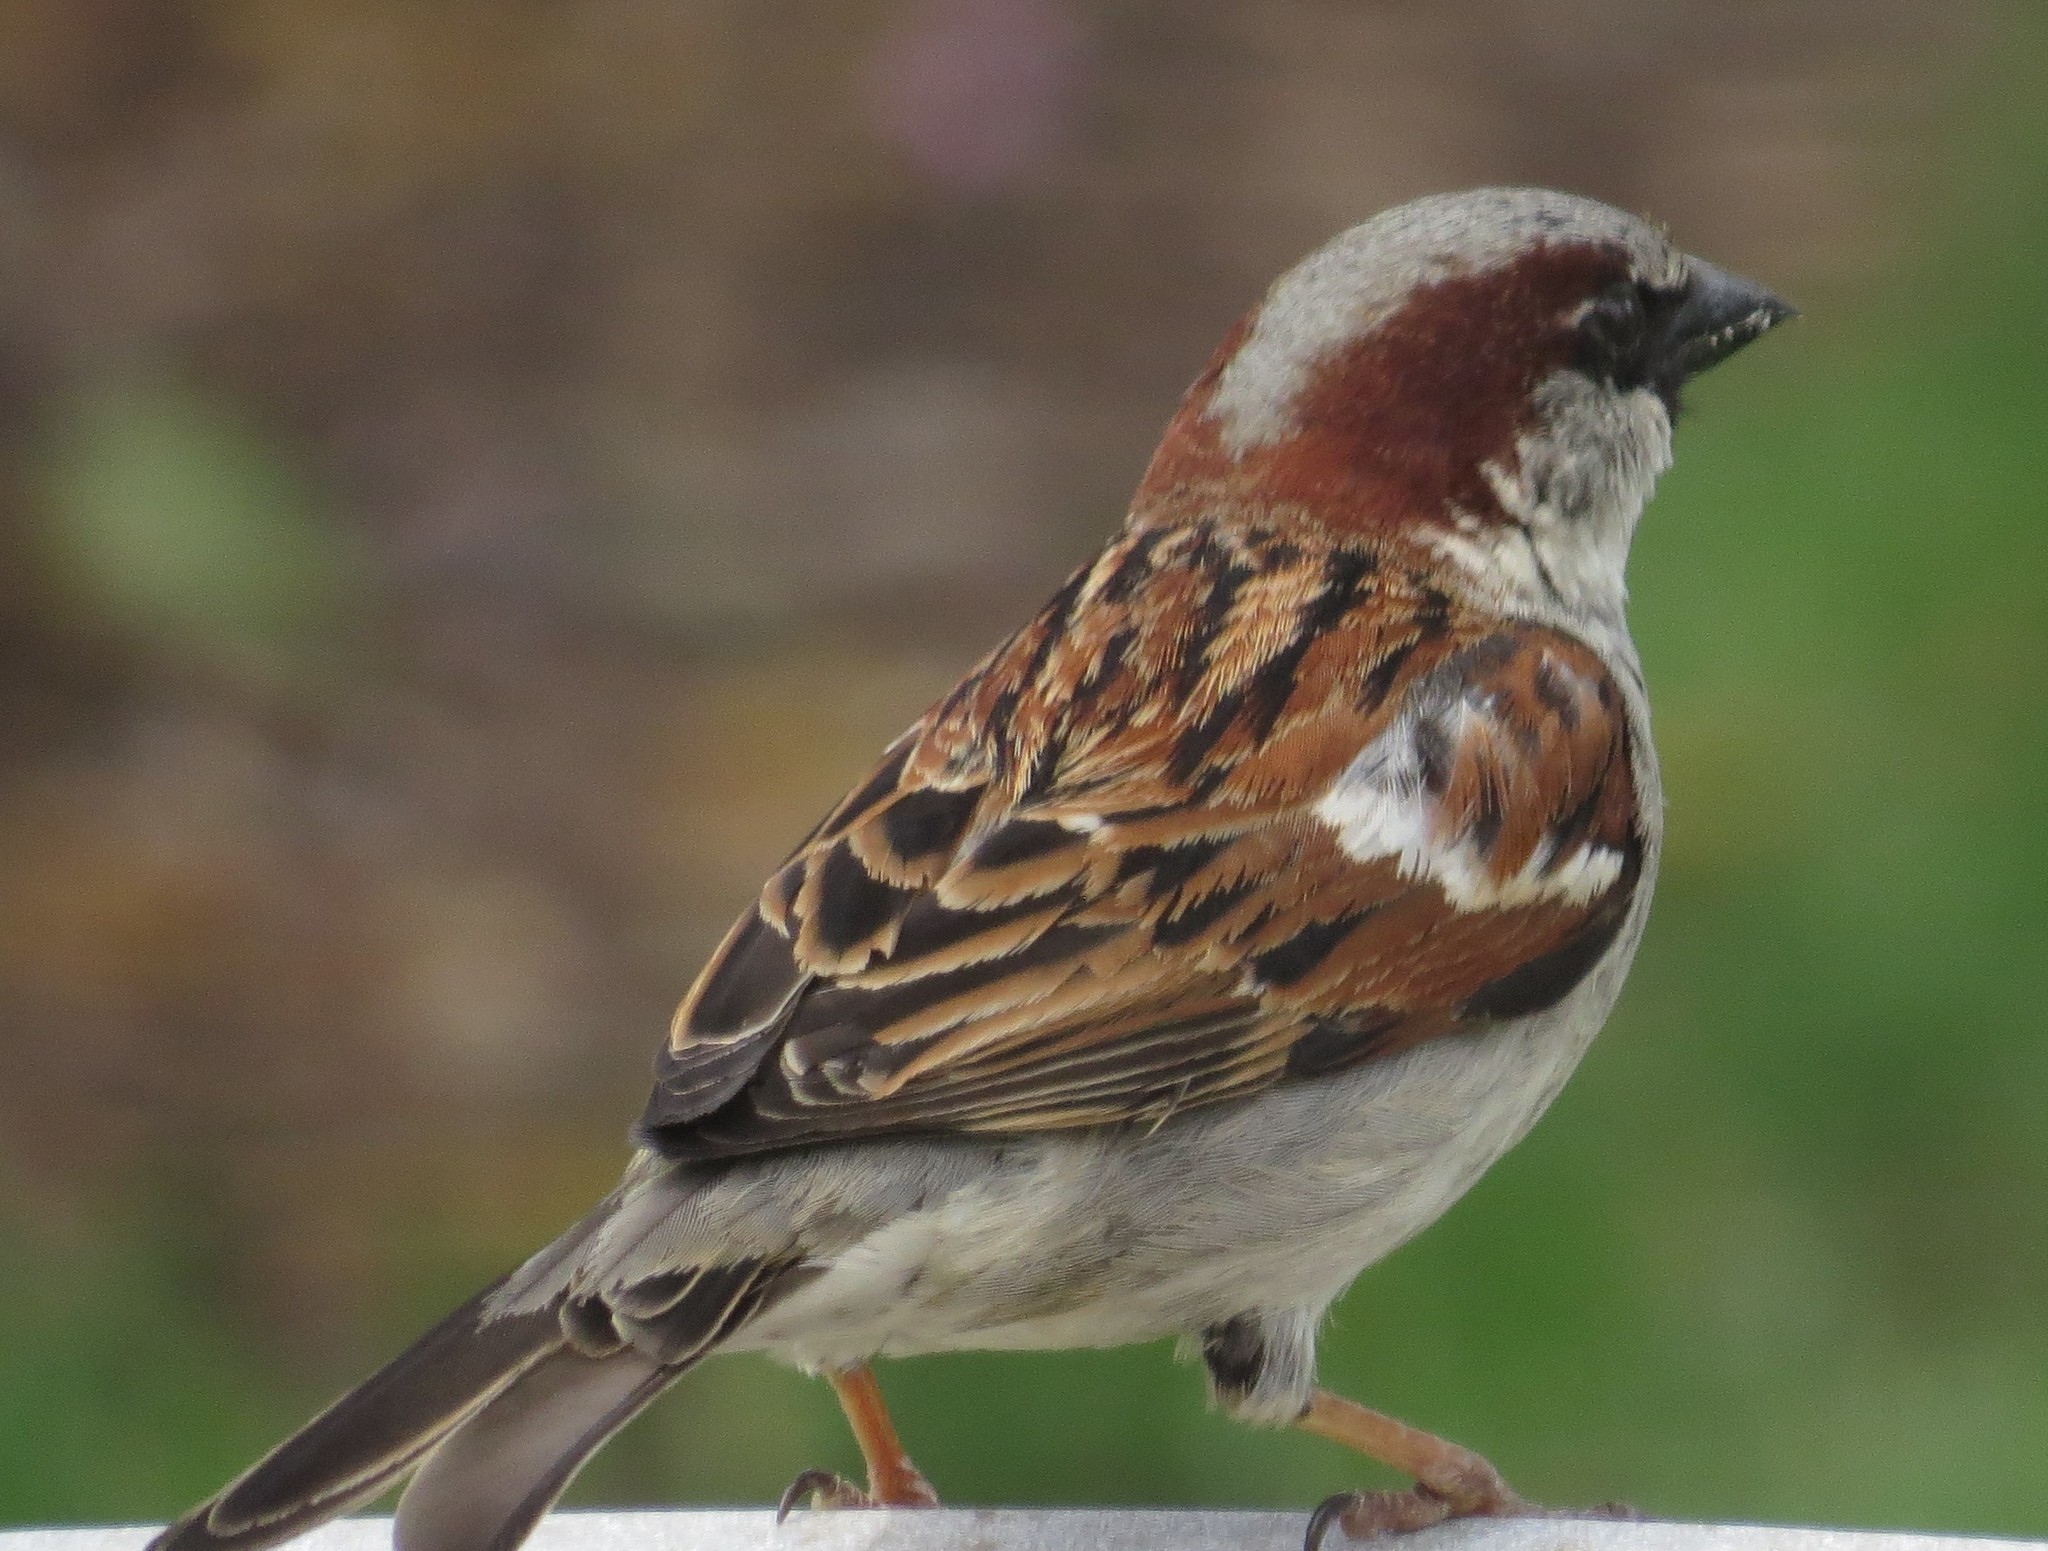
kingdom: Animalia
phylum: Chordata
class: Aves
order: Passeriformes
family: Passeridae
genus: Passer
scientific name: Passer domesticus
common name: House sparrow
